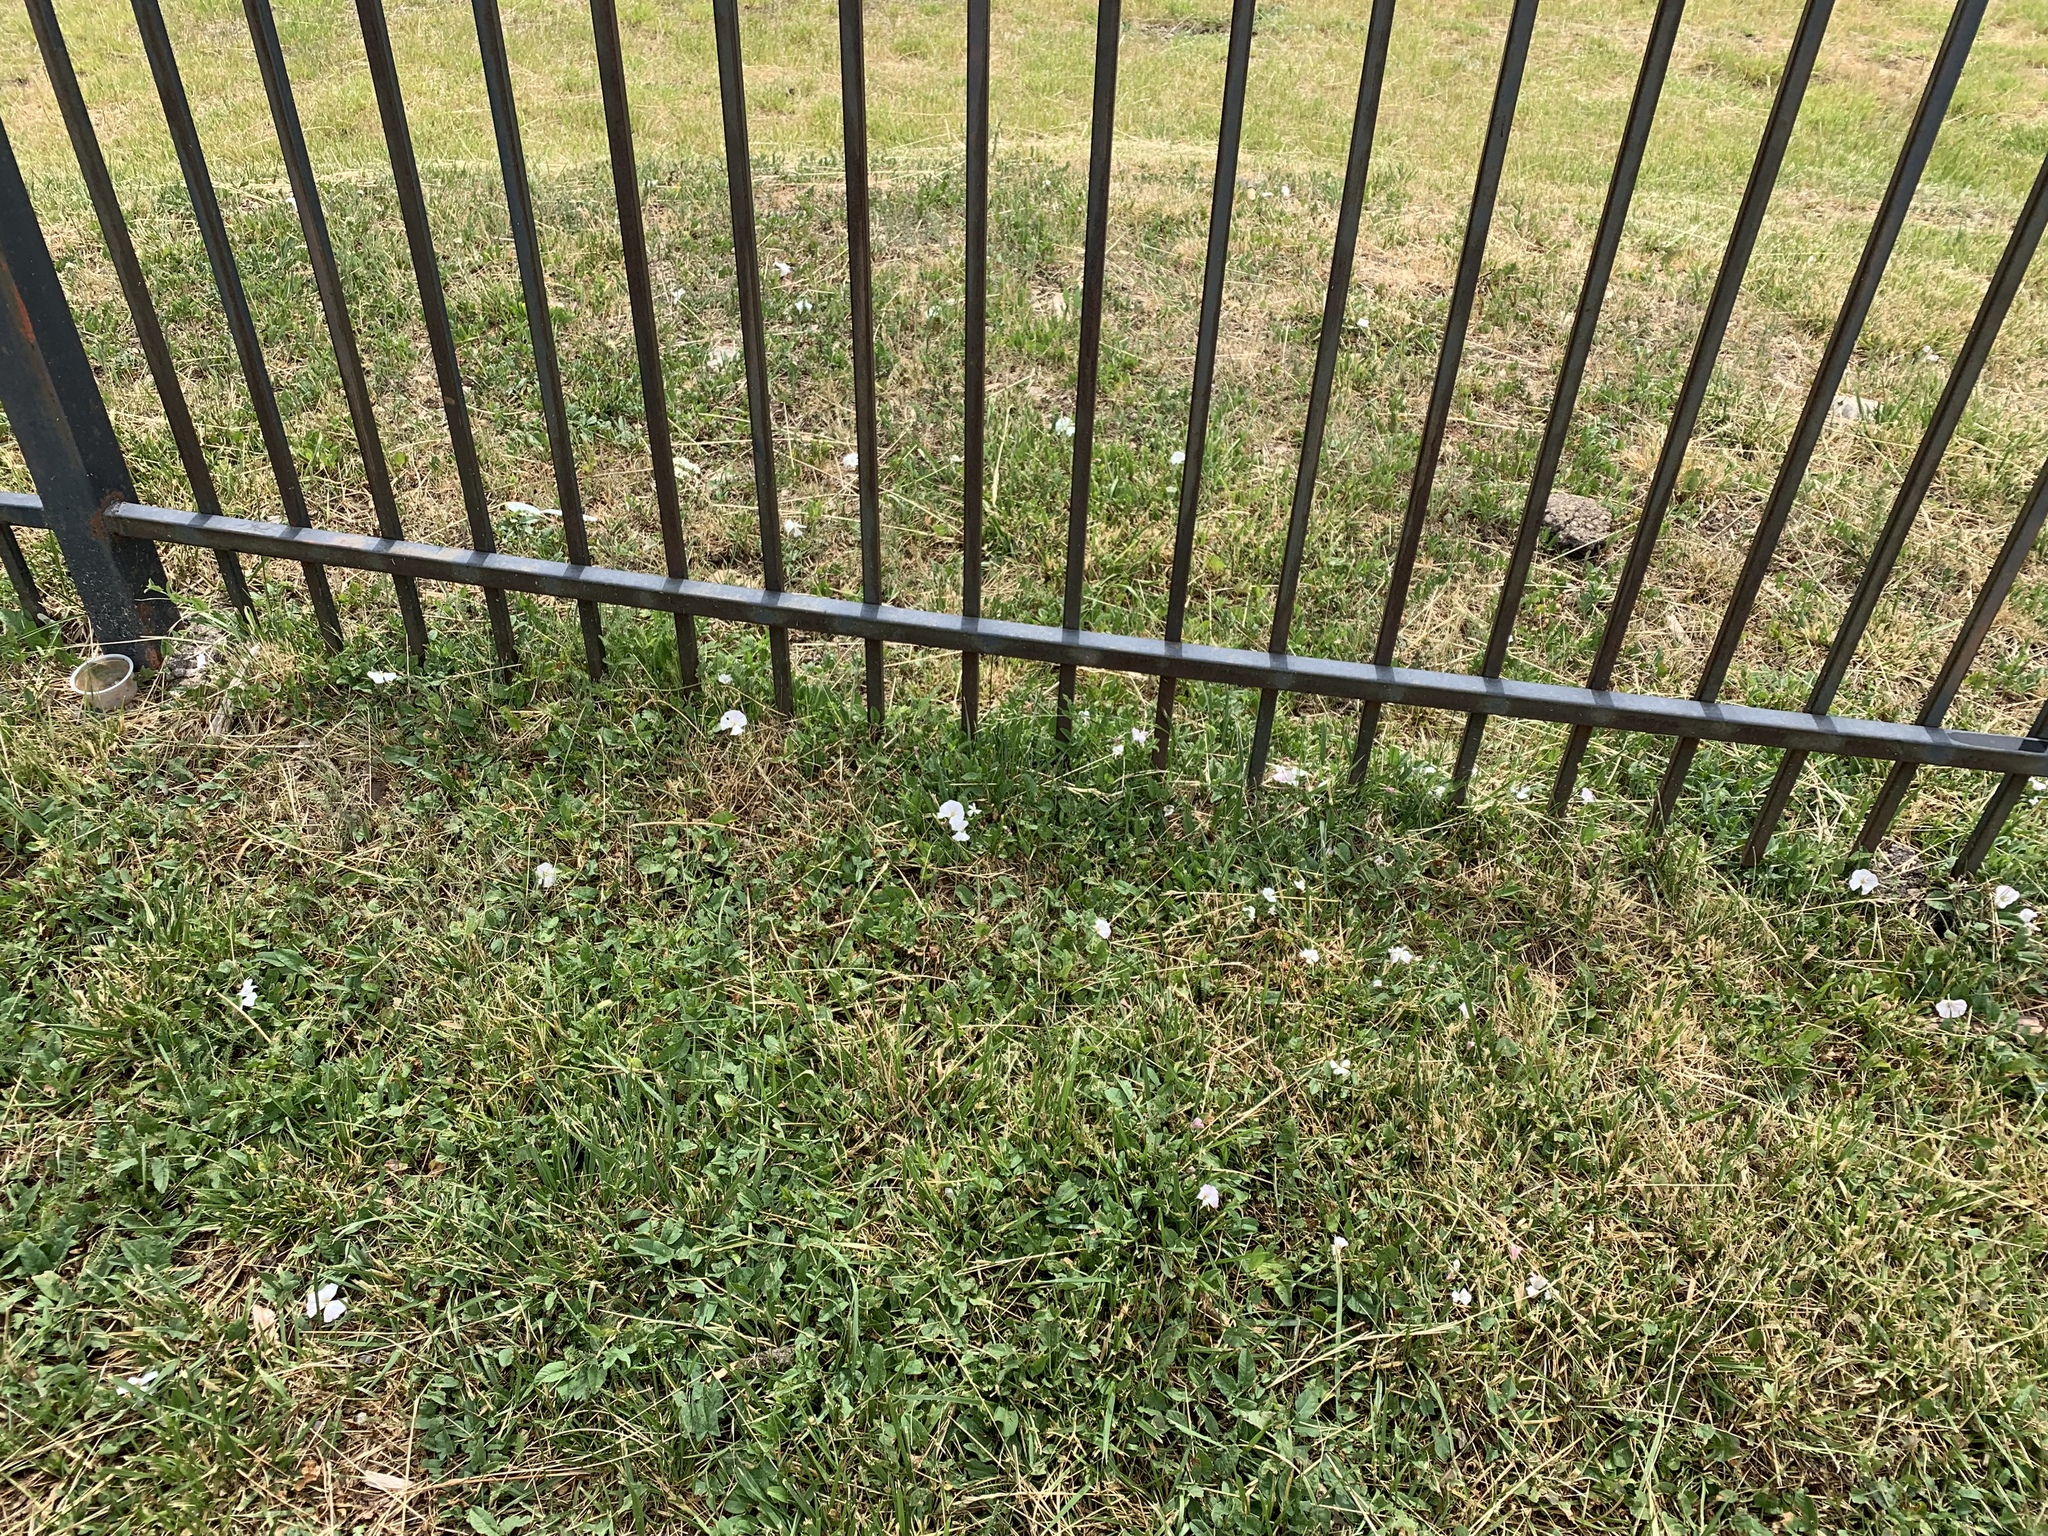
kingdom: Plantae
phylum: Tracheophyta
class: Magnoliopsida
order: Solanales
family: Convolvulaceae
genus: Convolvulus
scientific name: Convolvulus arvensis
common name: Field bindweed
